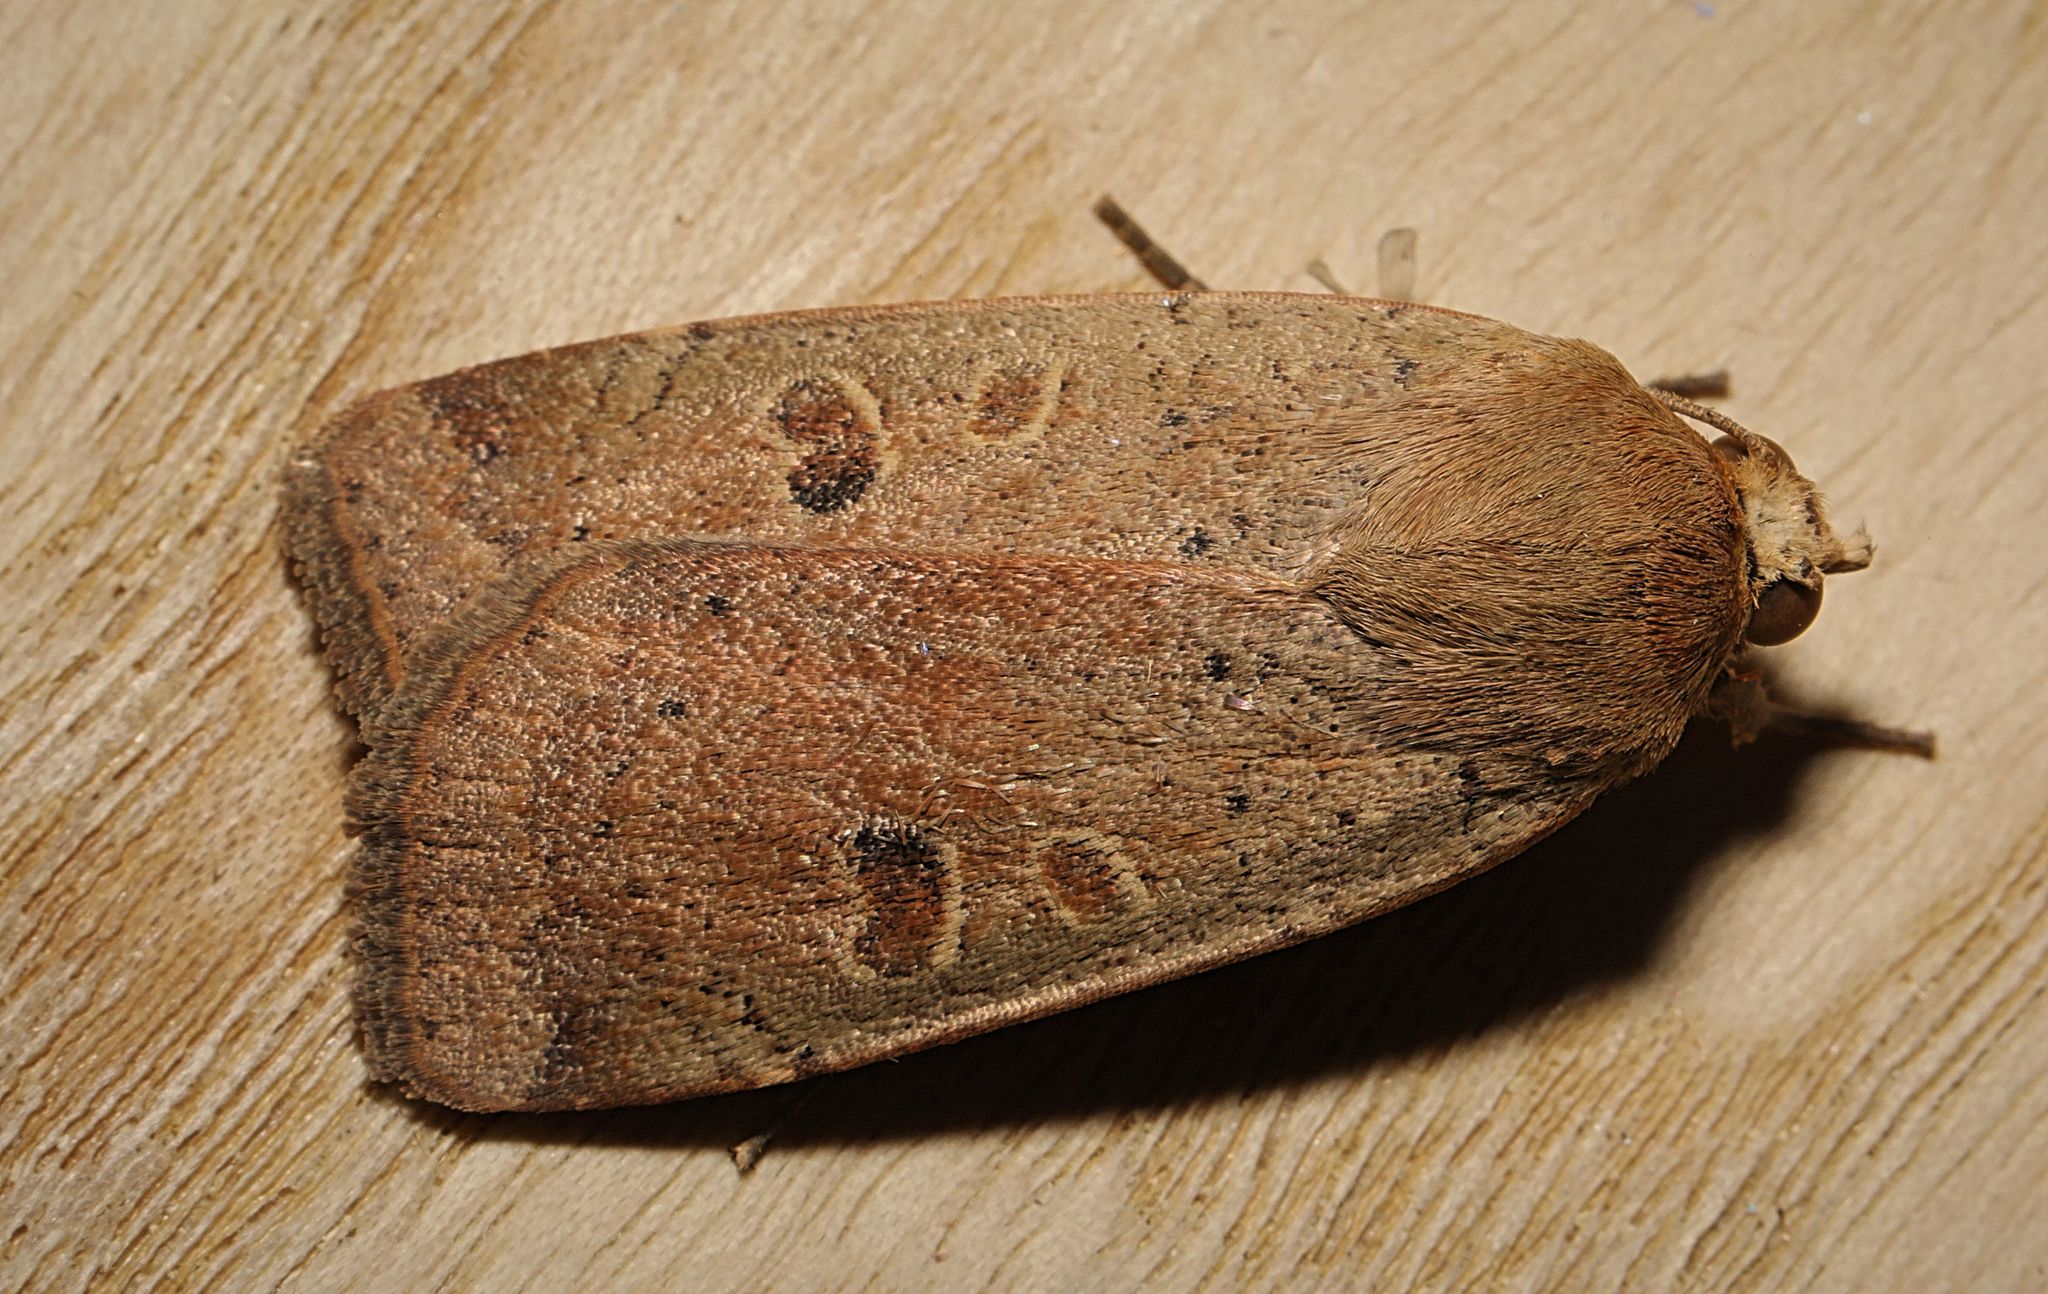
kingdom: Animalia
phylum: Arthropoda
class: Insecta
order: Lepidoptera
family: Noctuidae
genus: Noctua
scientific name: Noctua comes
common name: Lesser yellow underwing
